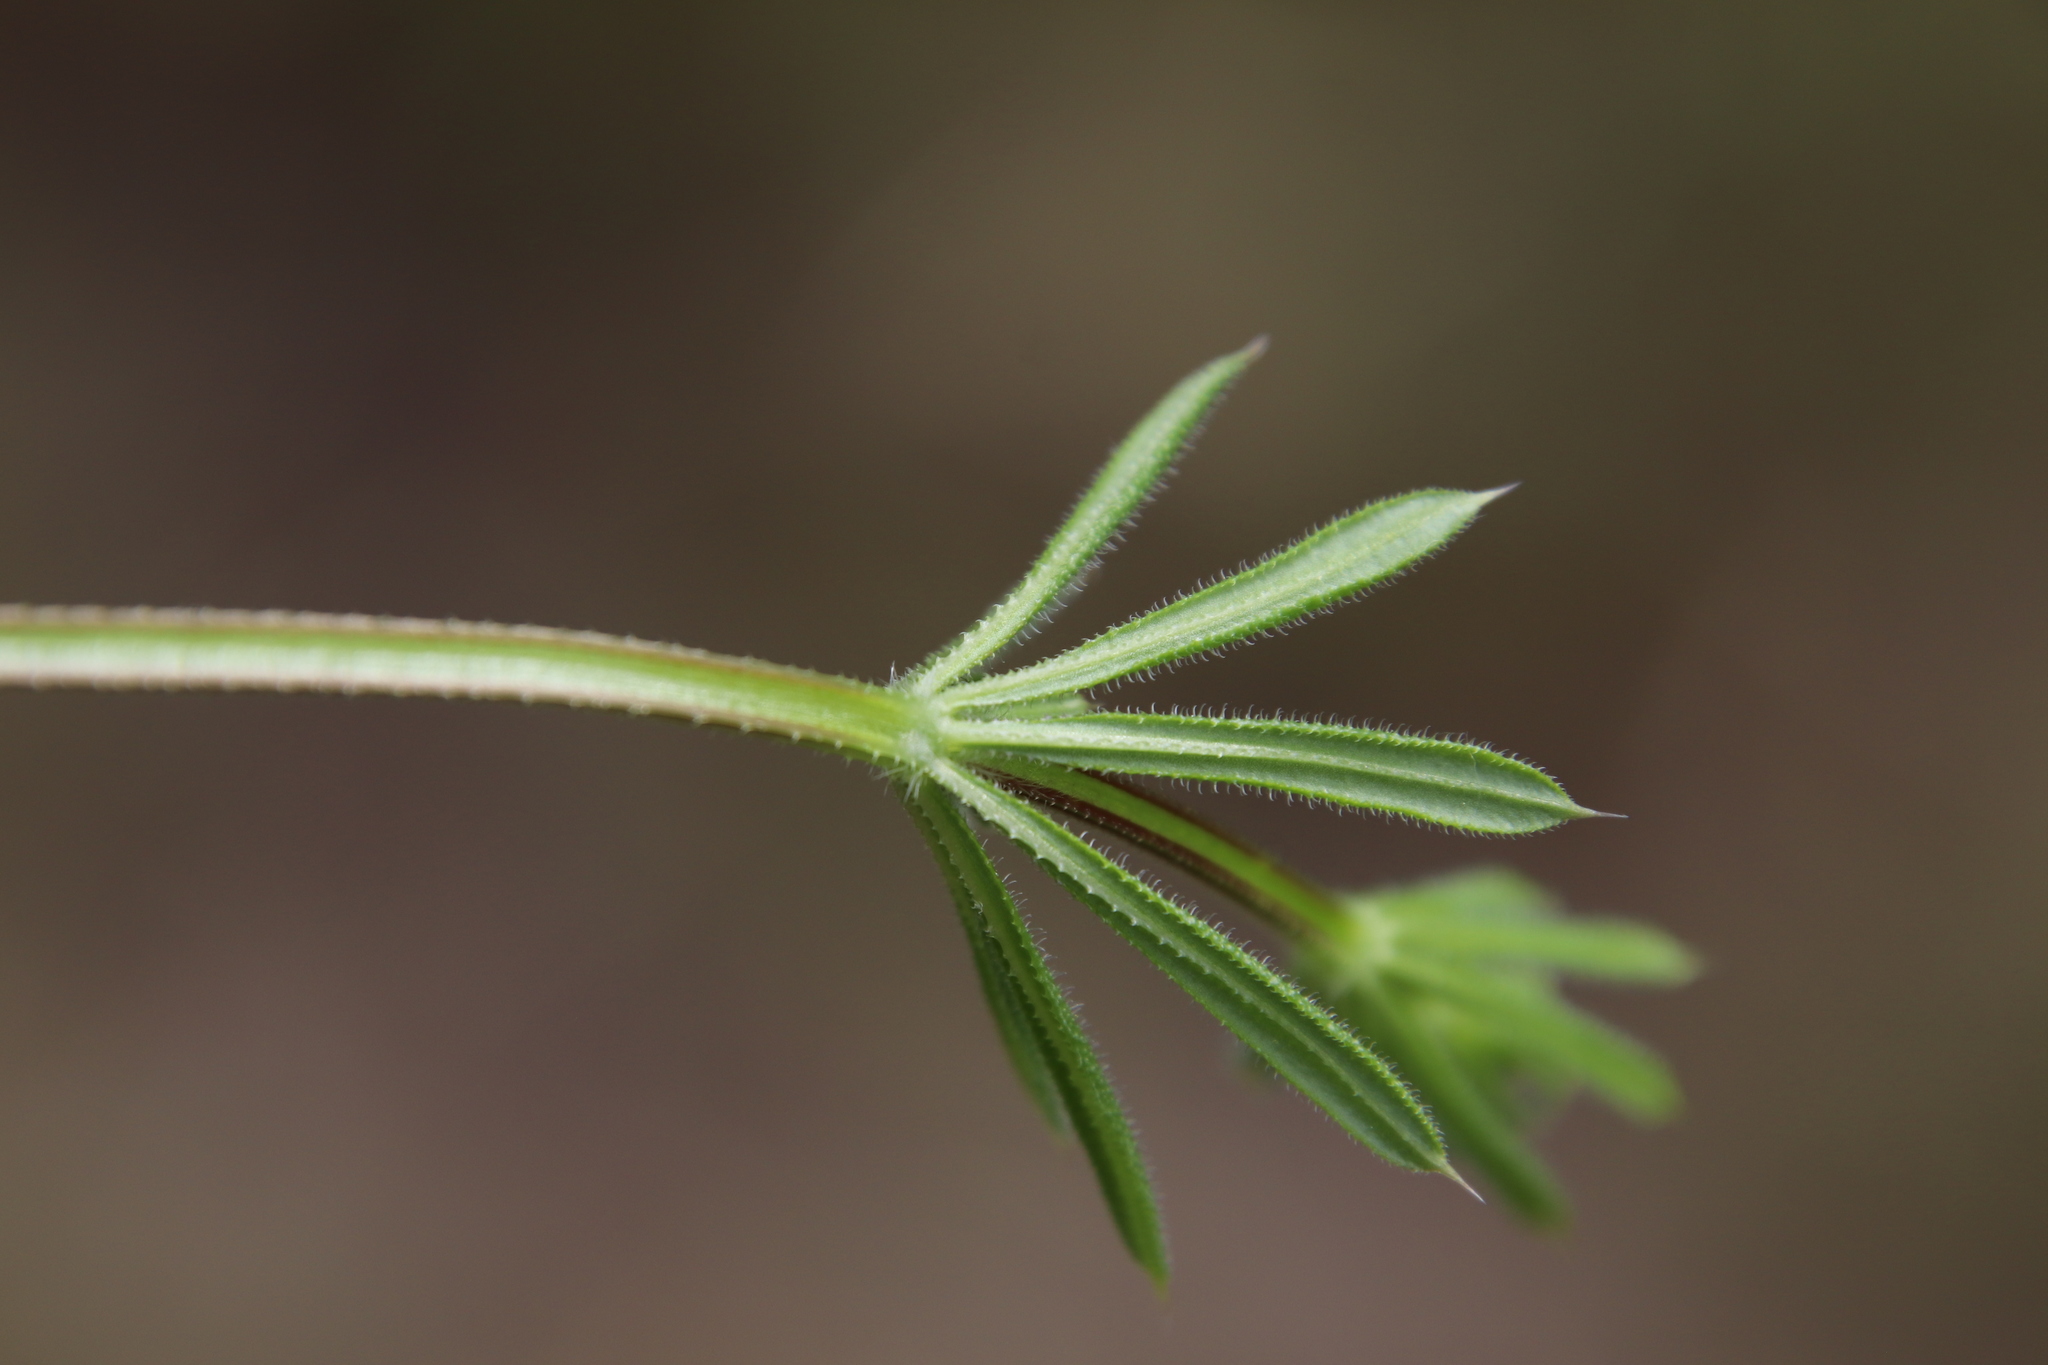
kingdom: Plantae
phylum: Tracheophyta
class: Magnoliopsida
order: Gentianales
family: Rubiaceae
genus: Galium
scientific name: Galium aparine
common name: Cleavers
